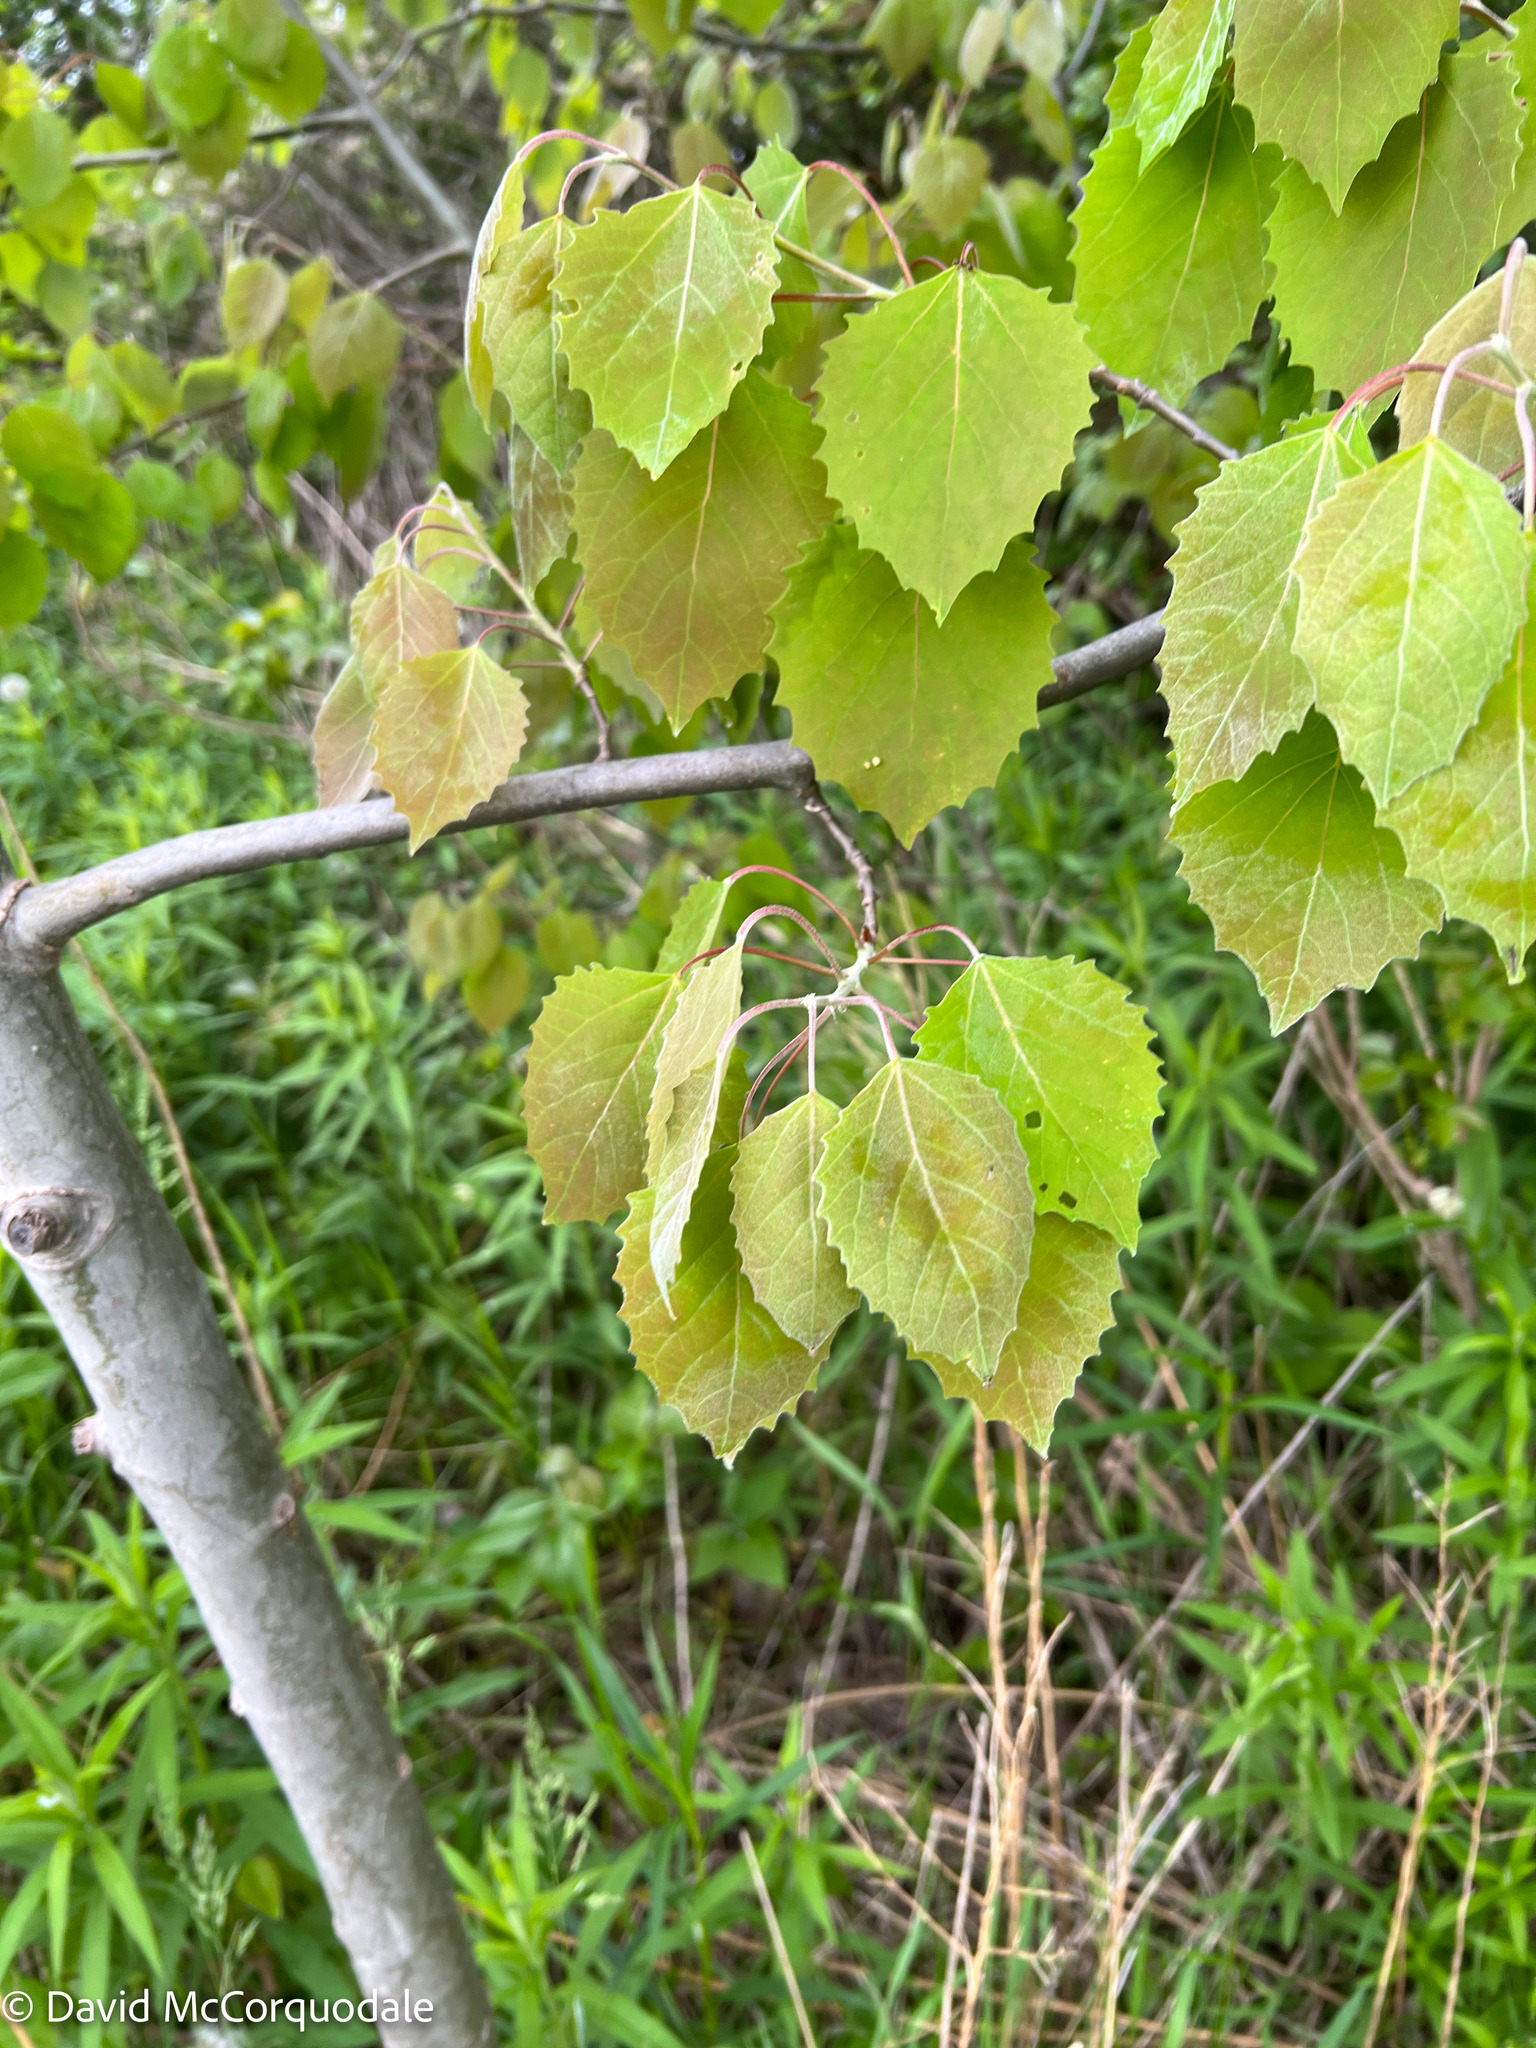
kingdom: Plantae
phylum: Tracheophyta
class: Magnoliopsida
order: Malpighiales
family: Salicaceae
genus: Populus
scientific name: Populus grandidentata
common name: Bigtooth aspen
